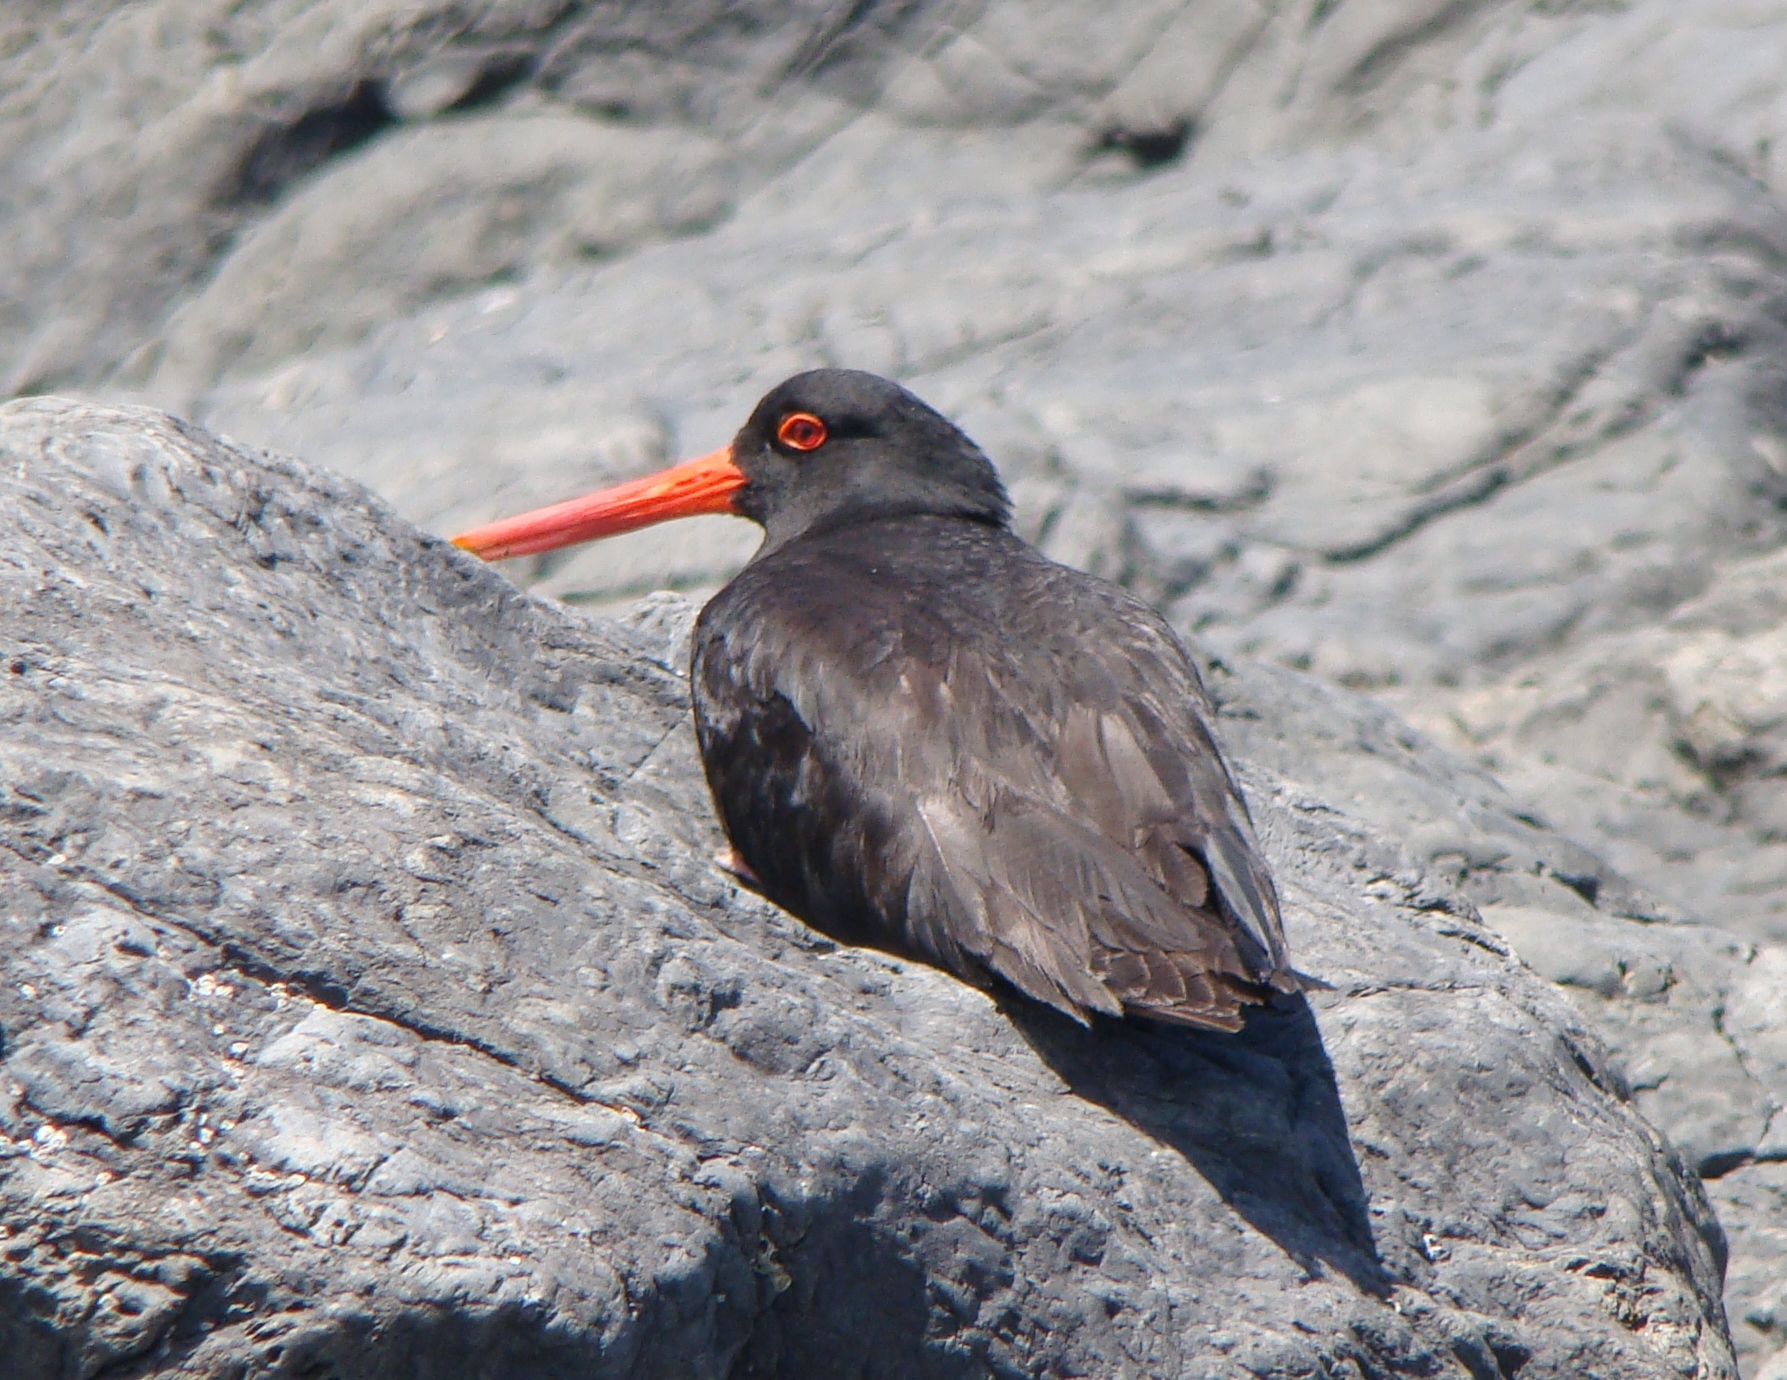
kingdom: Animalia
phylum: Chordata
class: Aves
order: Charadriiformes
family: Haematopodidae
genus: Haematopus
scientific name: Haematopus unicolor
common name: Variable oystercatcher
